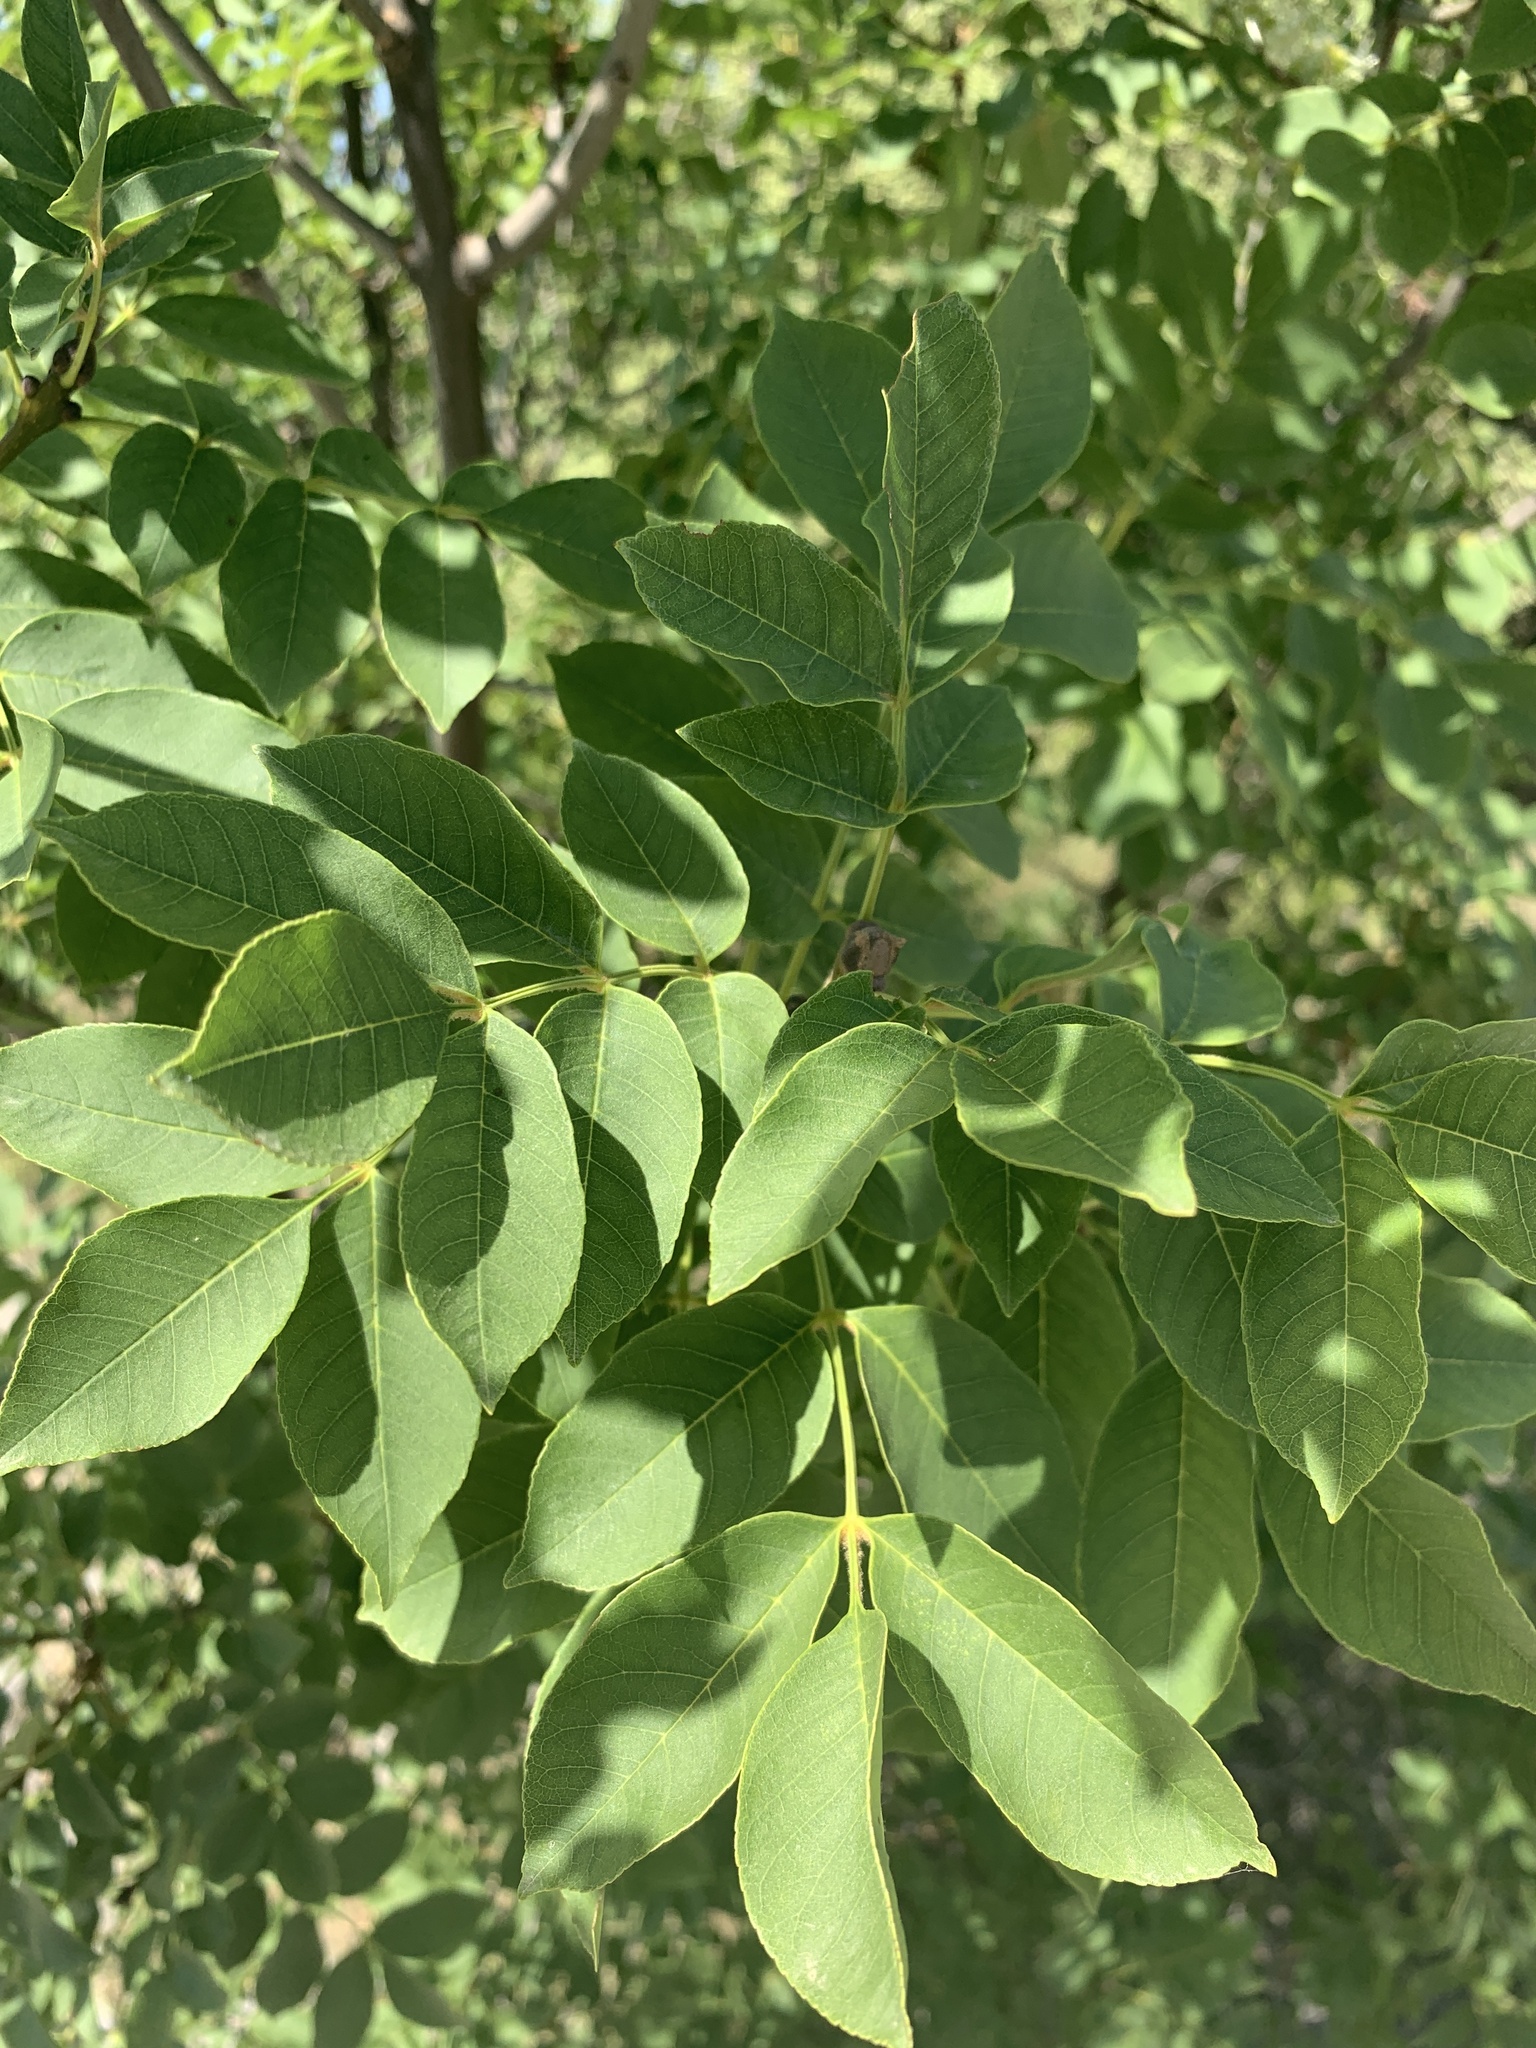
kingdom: Plantae
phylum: Tracheophyta
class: Magnoliopsida
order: Lamiales
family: Oleaceae
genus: Fraxinus
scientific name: Fraxinus ornus
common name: Manna ash
